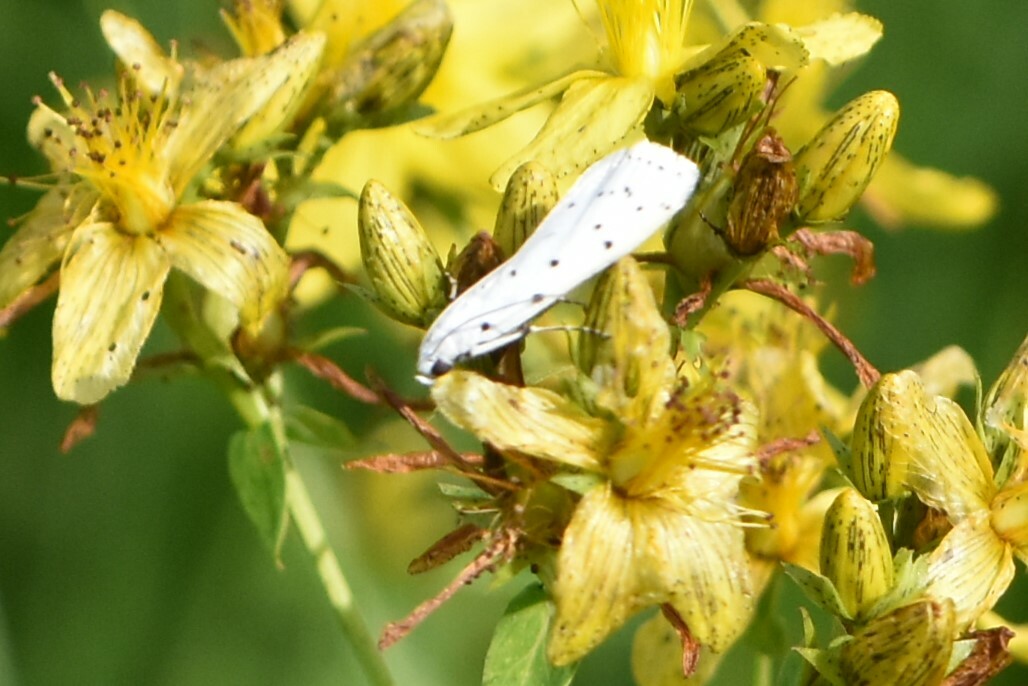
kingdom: Animalia
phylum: Arthropoda
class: Insecta
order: Lepidoptera
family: Pyralidae
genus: Myelois
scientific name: Myelois circumvoluta
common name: Thistle ermine
